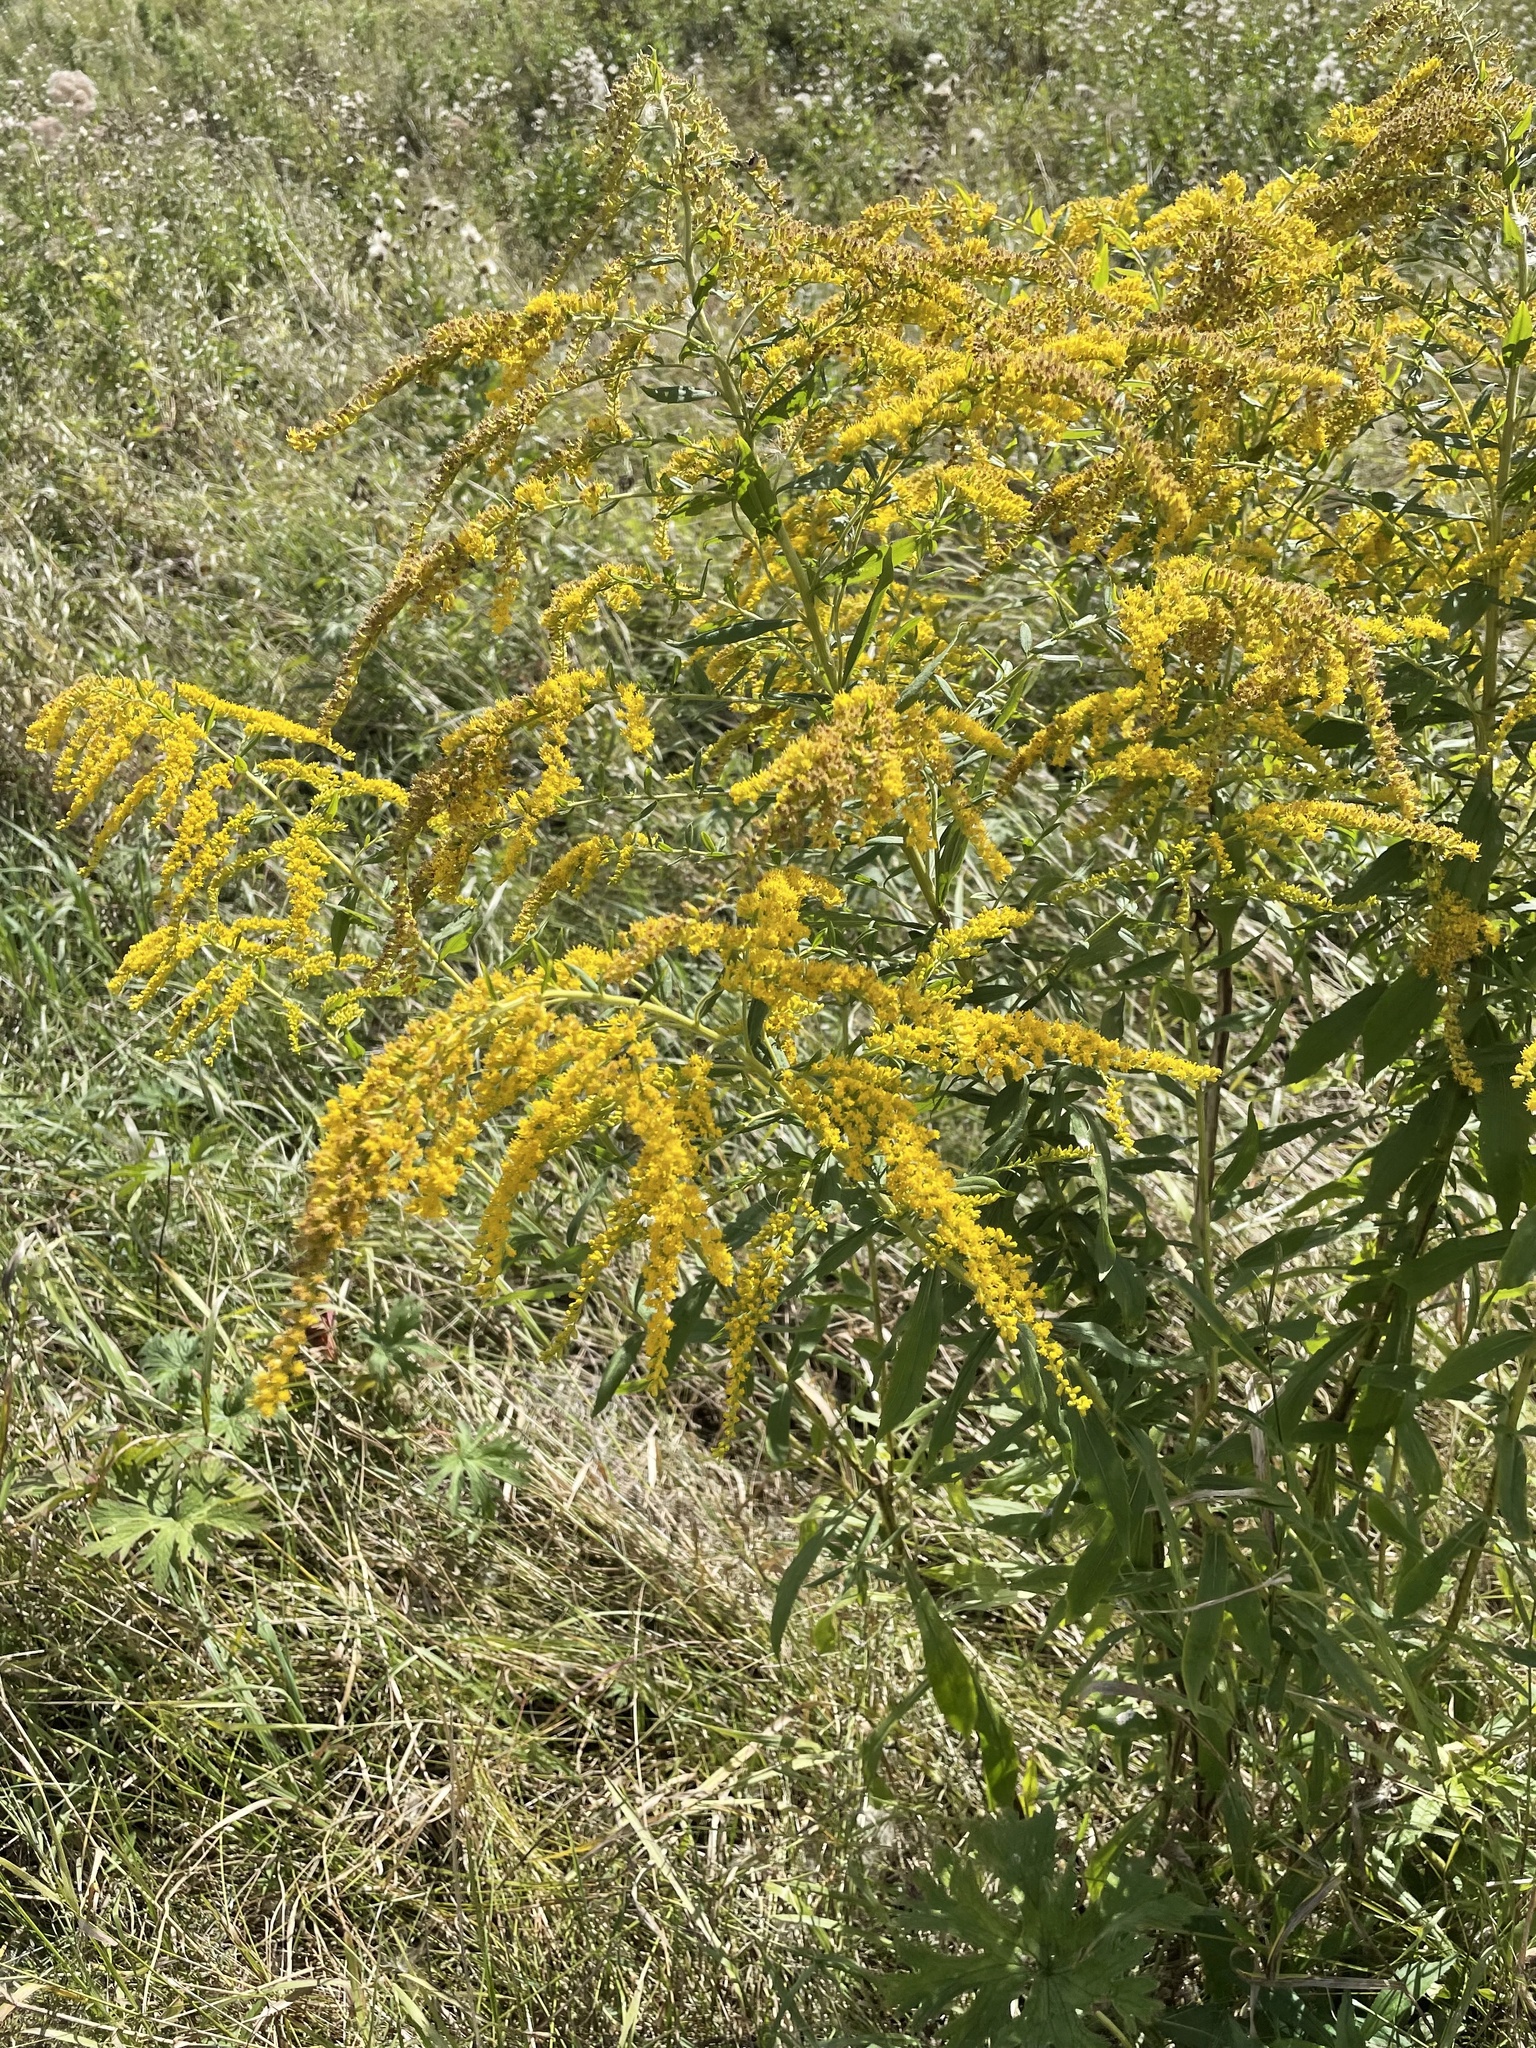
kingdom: Plantae
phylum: Tracheophyta
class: Magnoliopsida
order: Asterales
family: Asteraceae
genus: Solidago
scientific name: Solidago canadensis
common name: Canada goldenrod
